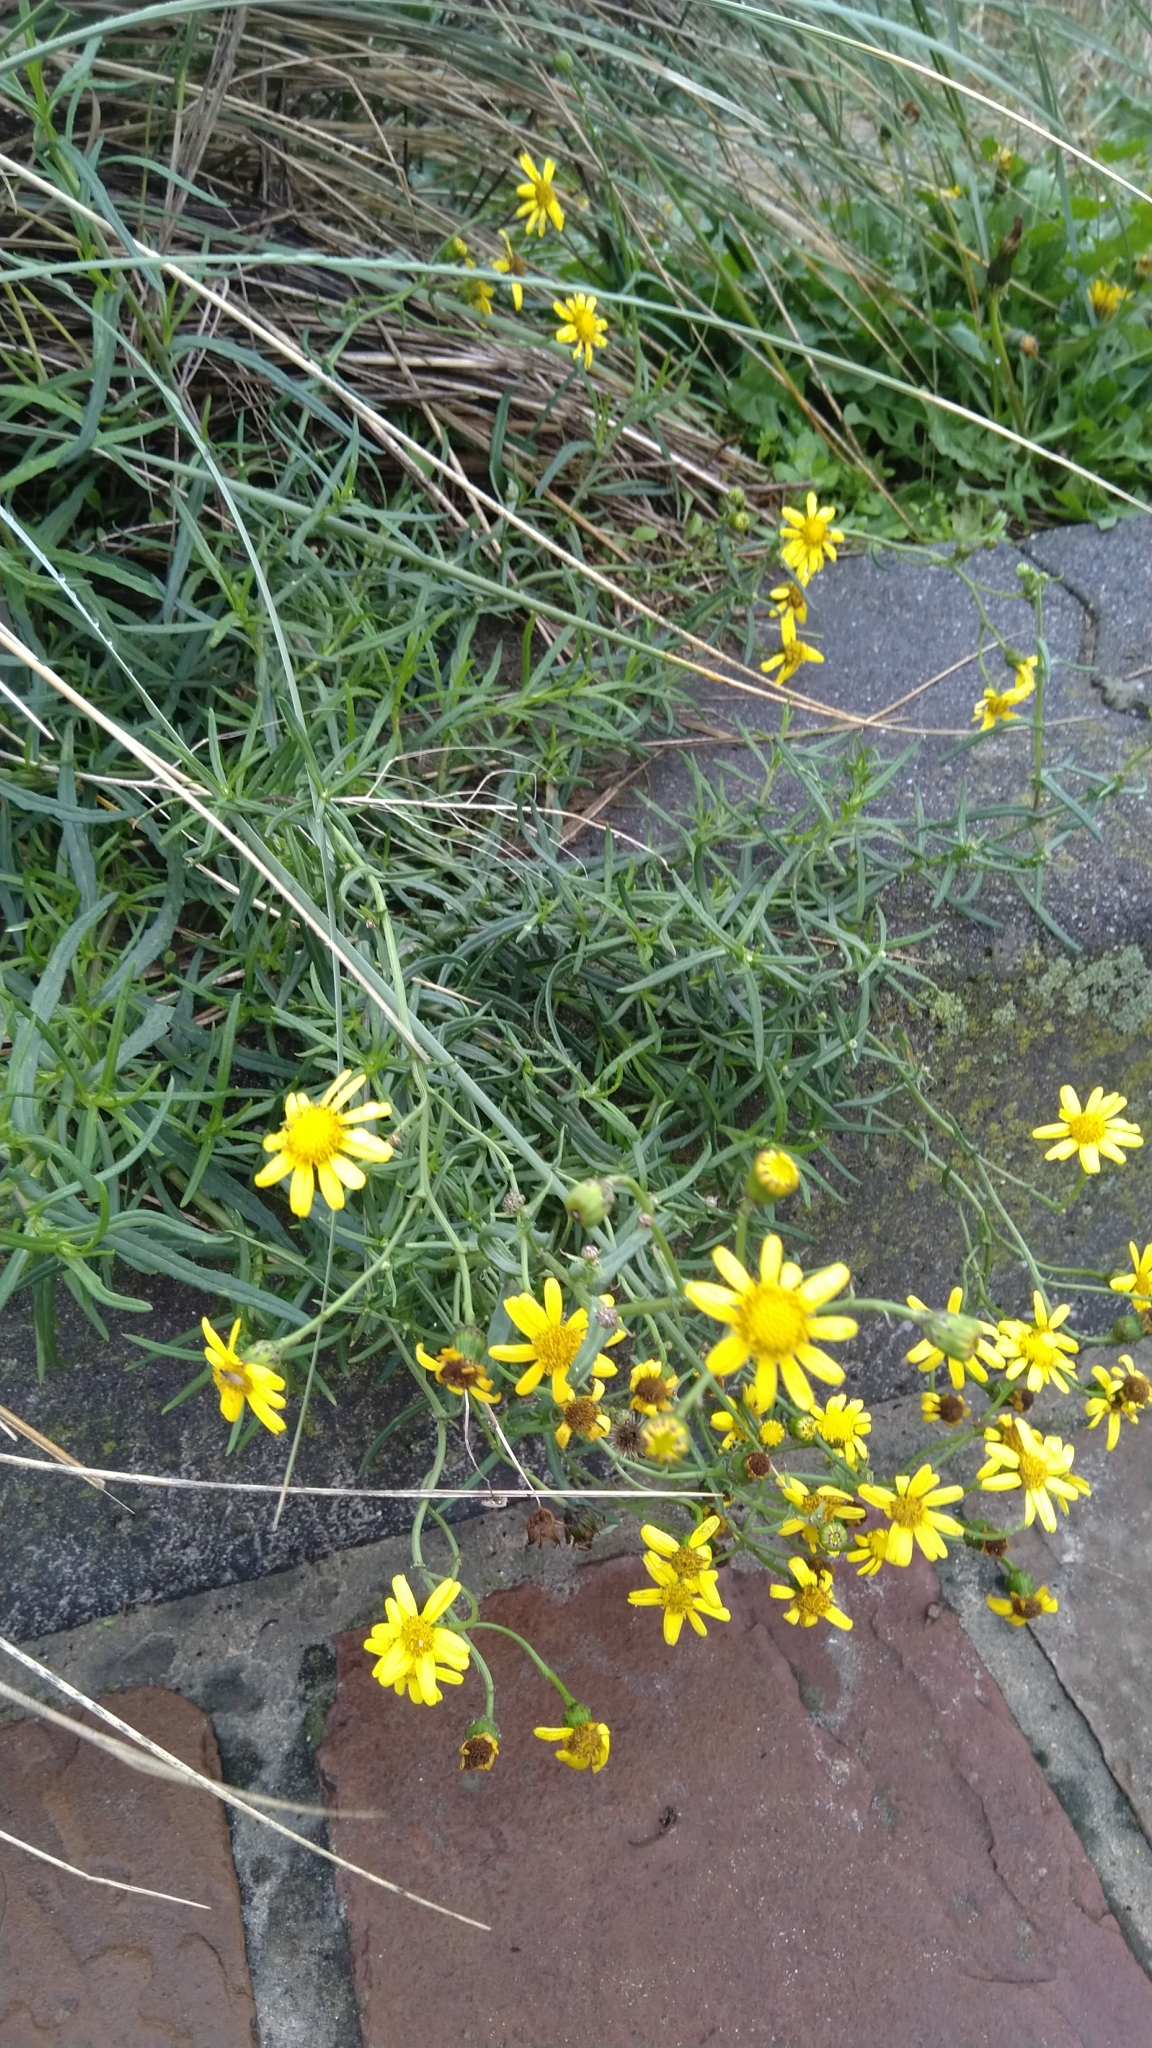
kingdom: Plantae
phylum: Tracheophyta
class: Magnoliopsida
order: Asterales
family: Asteraceae
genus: Senecio
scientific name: Senecio inaequidens
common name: Narrow-leaved ragwort
